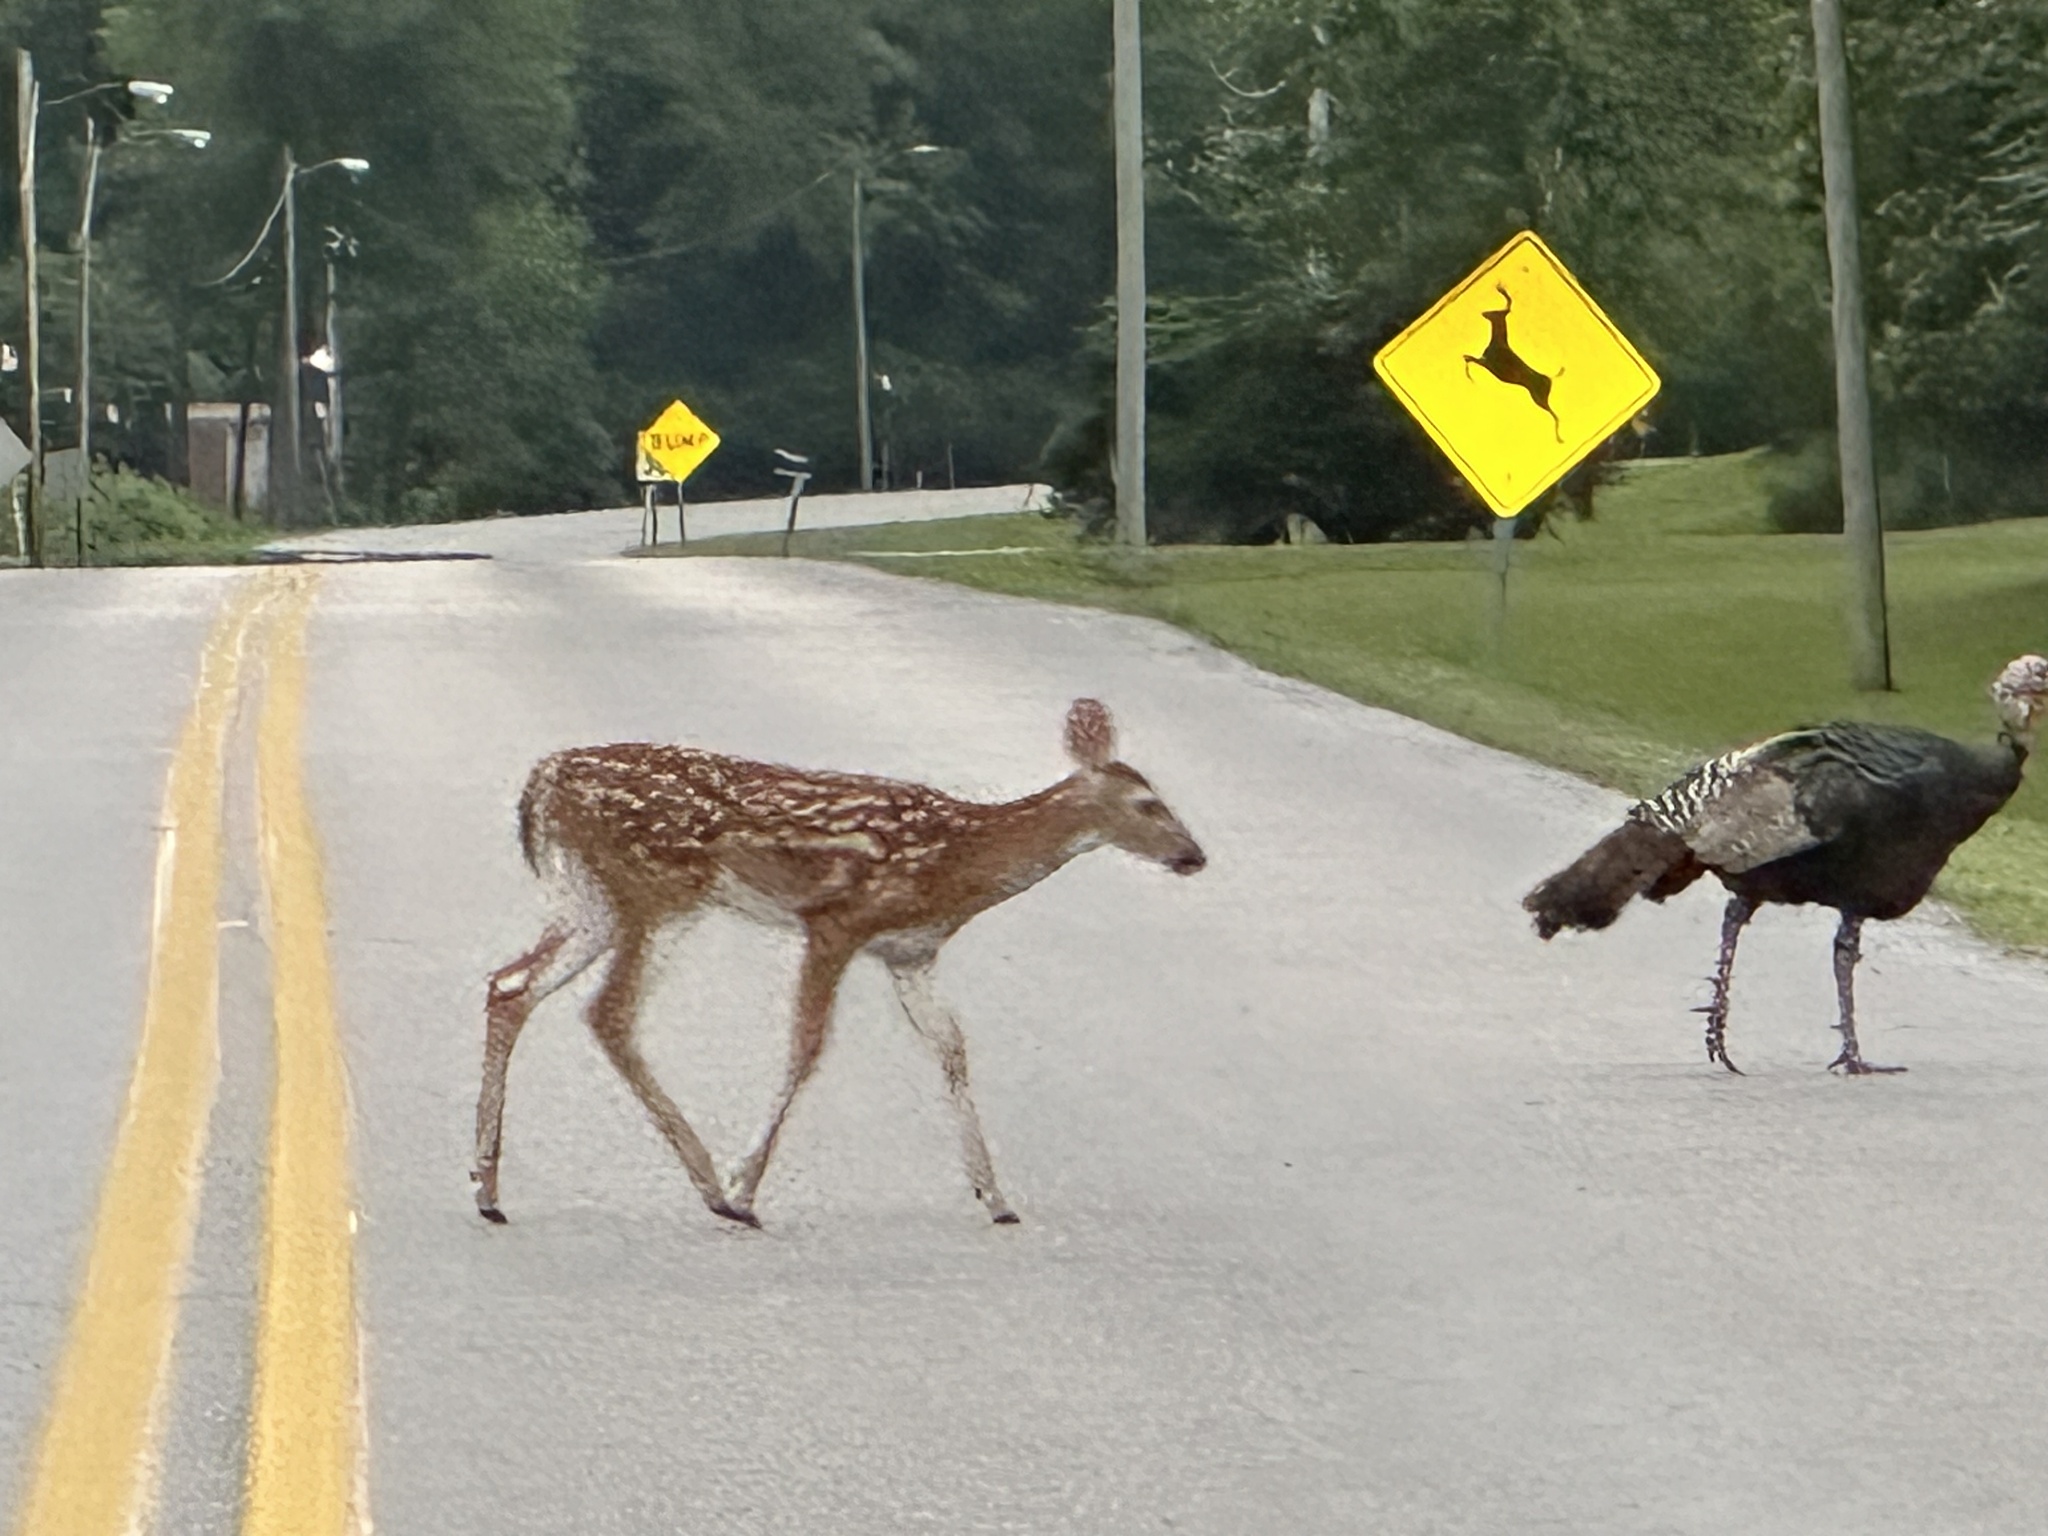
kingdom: Animalia
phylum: Chordata
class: Mammalia
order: Artiodactyla
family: Cervidae
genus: Odocoileus
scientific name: Odocoileus virginianus
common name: White-tailed deer
